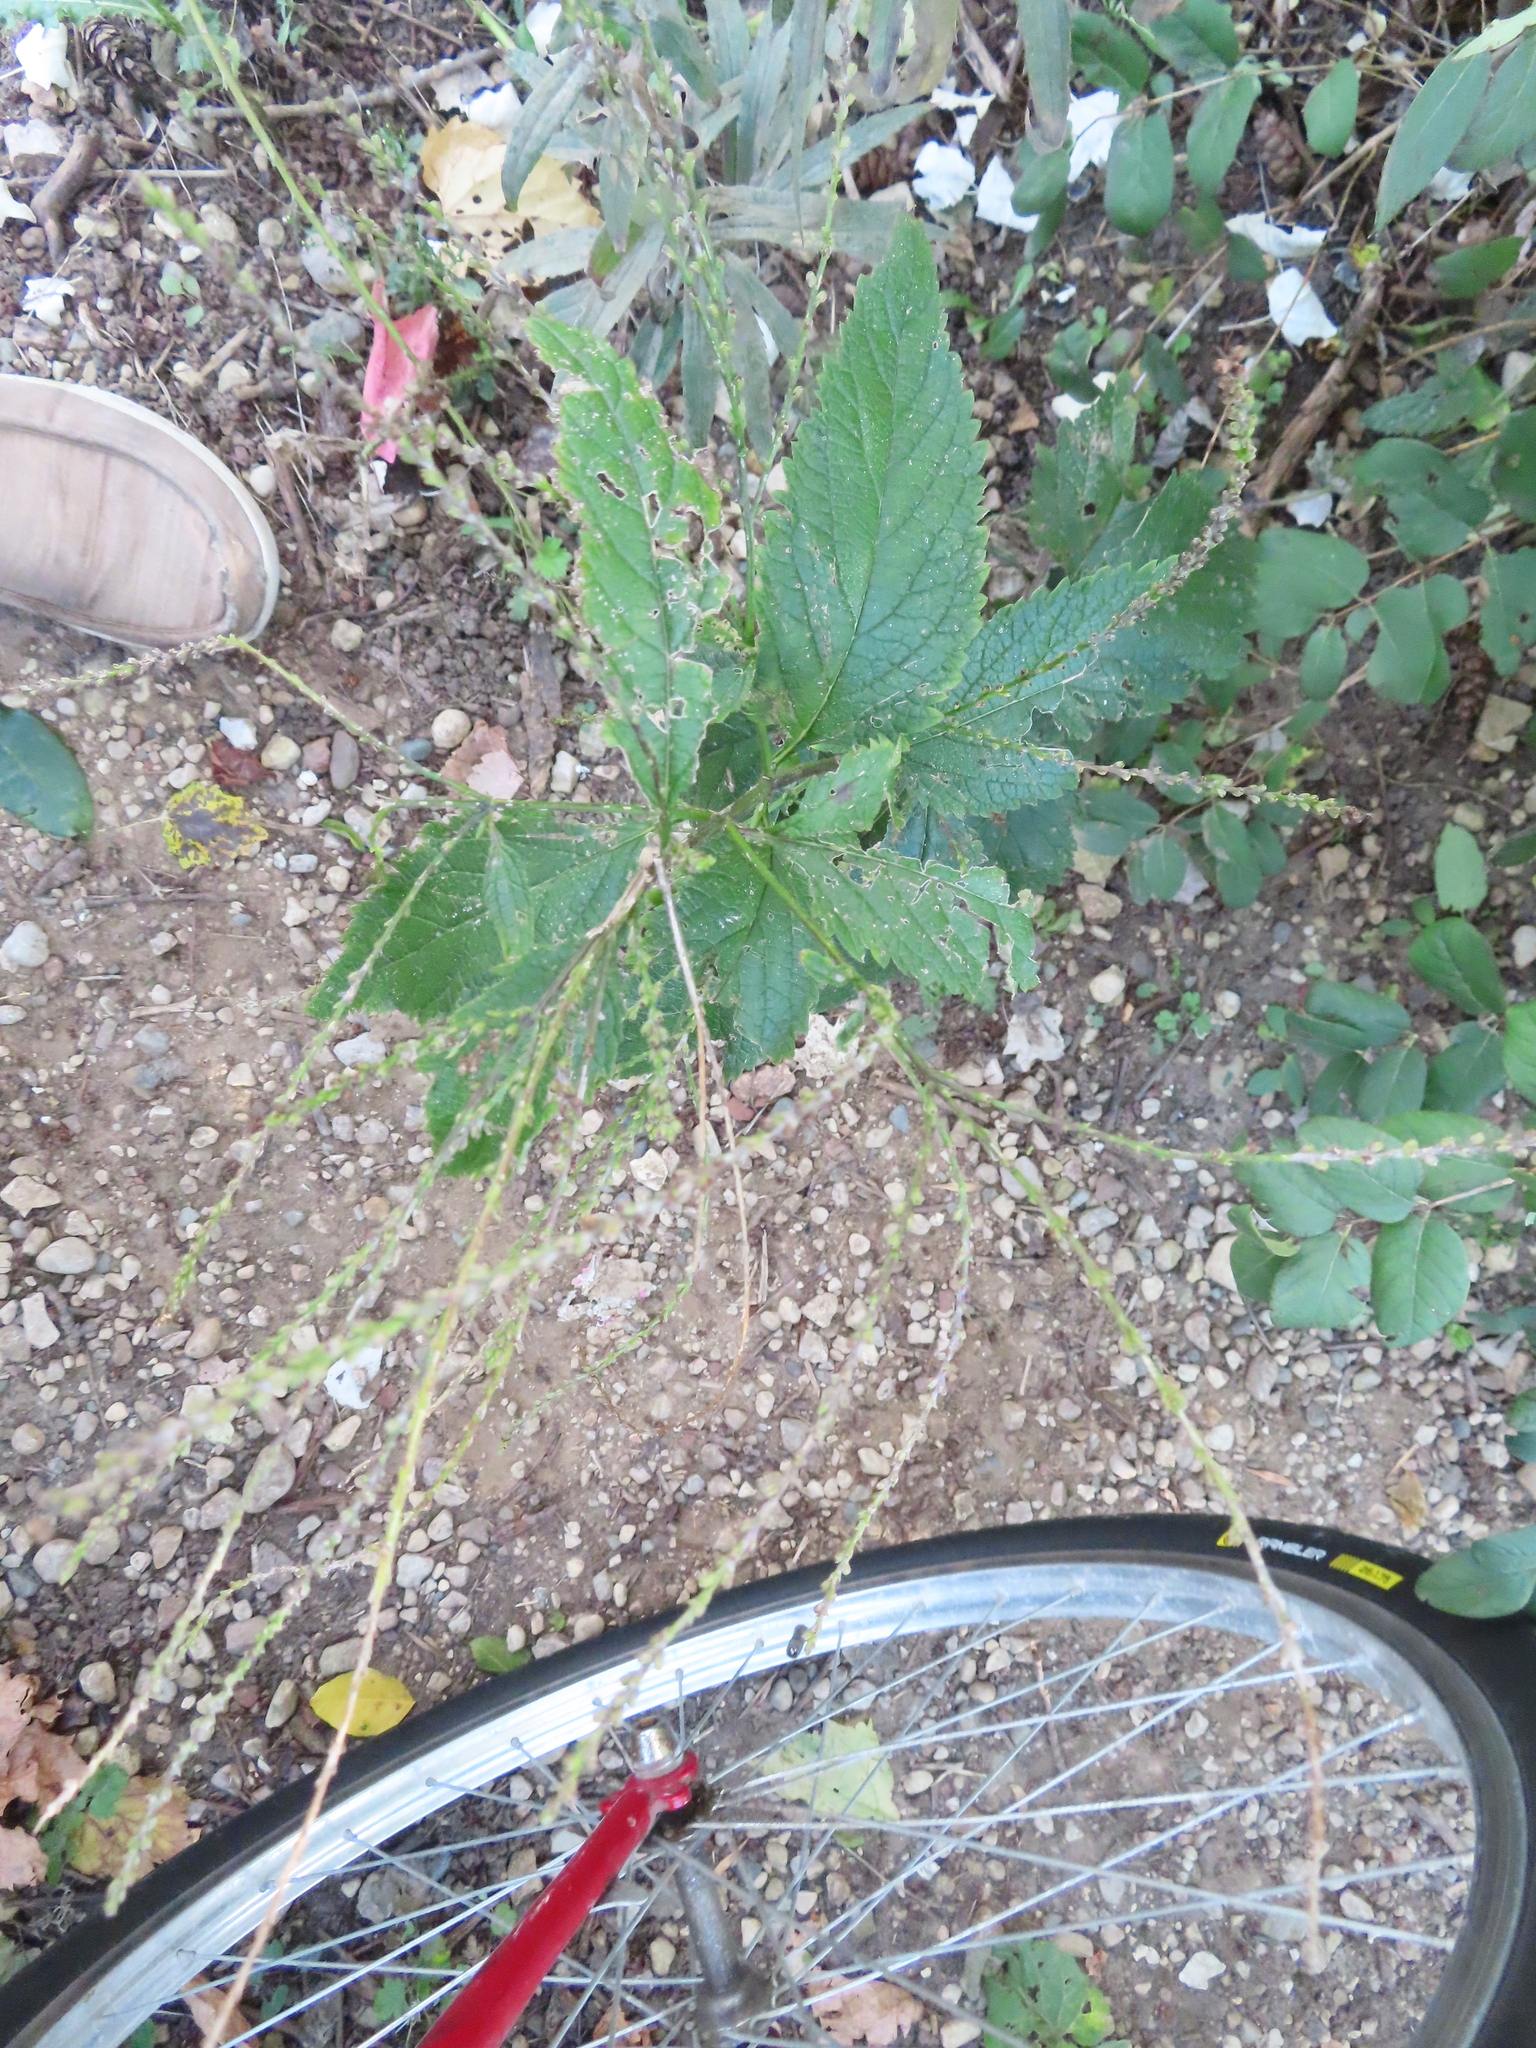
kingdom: Plantae
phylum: Tracheophyta
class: Magnoliopsida
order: Lamiales
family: Verbenaceae
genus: Verbena
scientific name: Verbena urticifolia
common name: Nettle-leaved vervain
